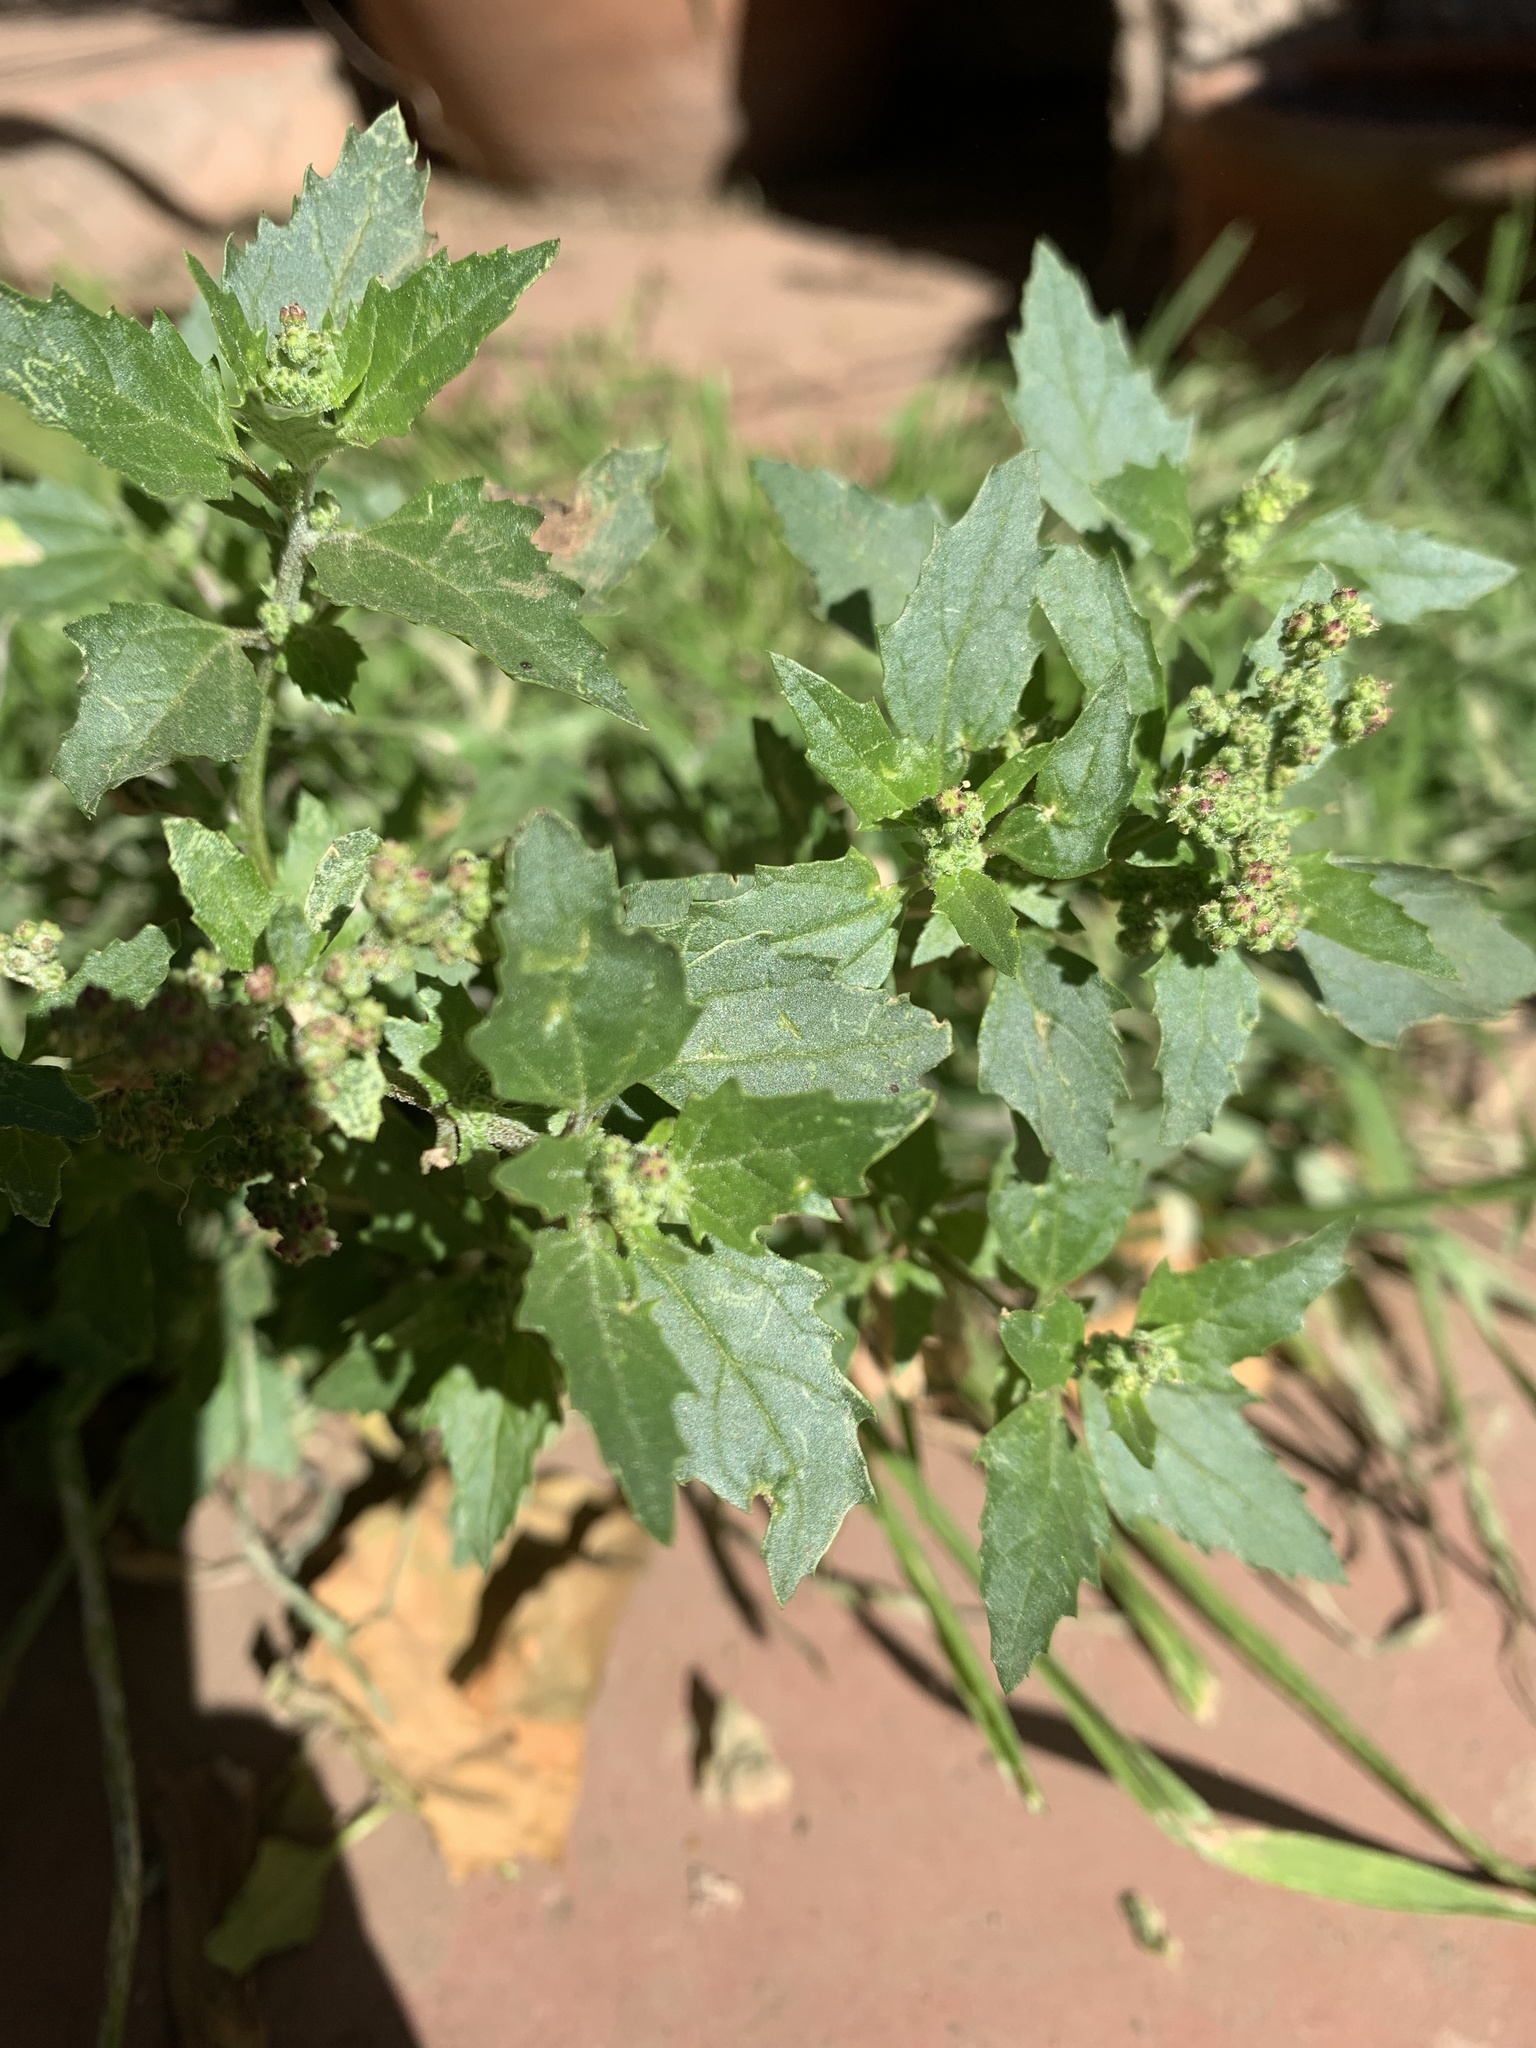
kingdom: Plantae
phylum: Tracheophyta
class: Magnoliopsida
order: Caryophyllales
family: Amaranthaceae
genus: Chenopodiastrum
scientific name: Chenopodiastrum murale
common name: Sowbane
